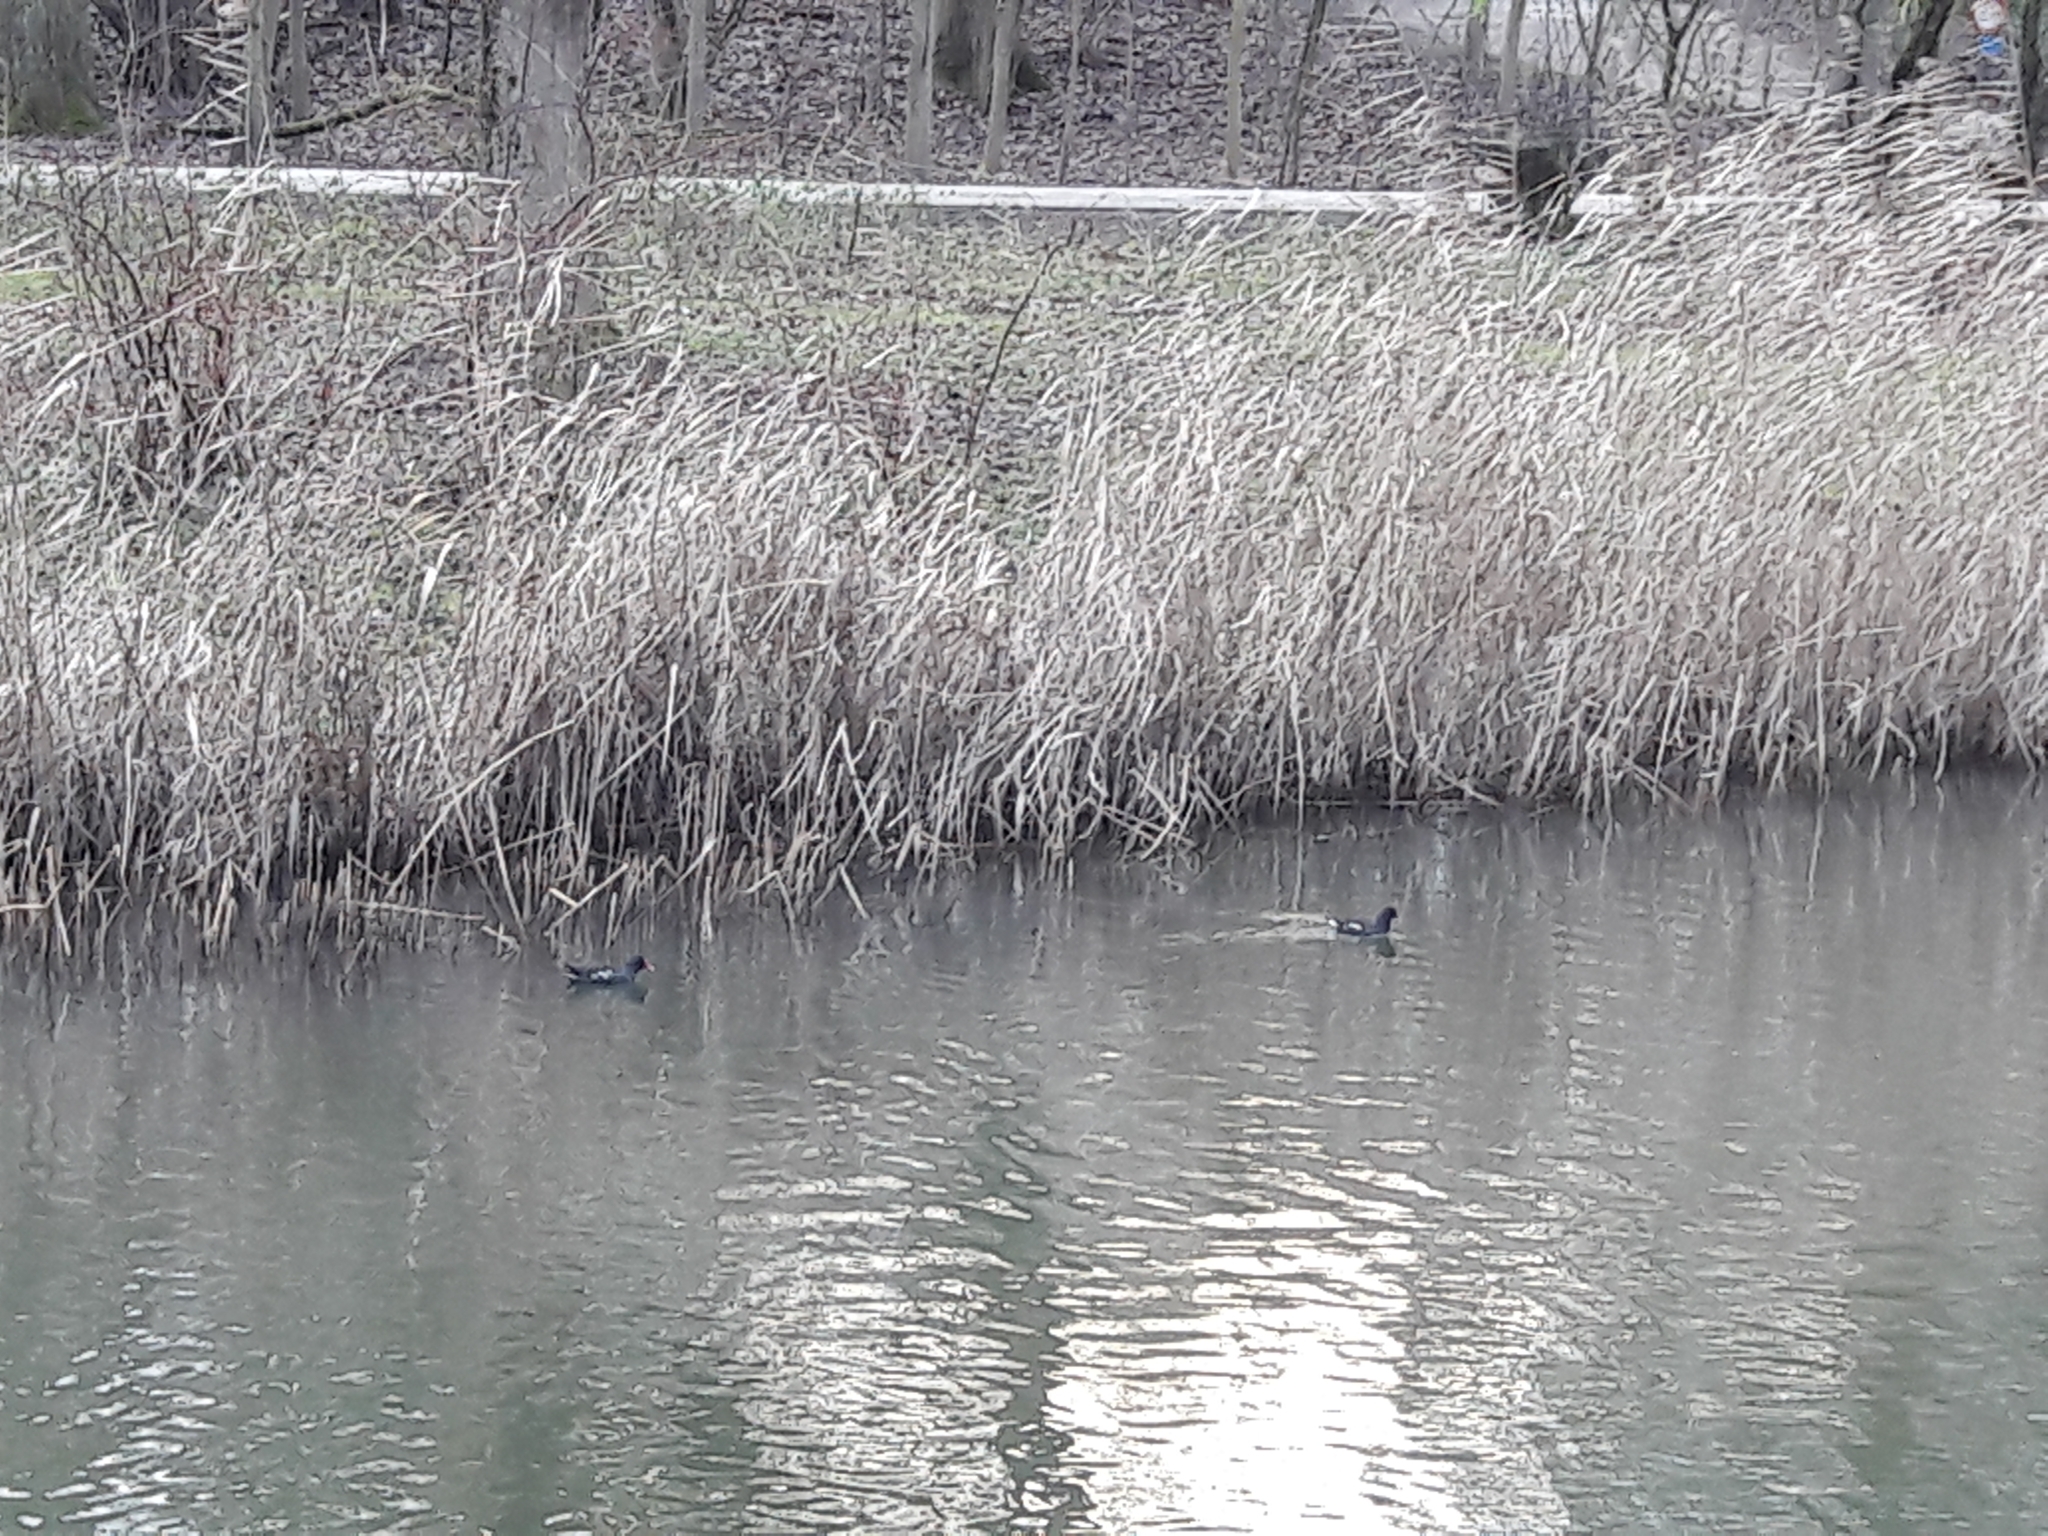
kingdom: Animalia
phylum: Chordata
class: Aves
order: Gruiformes
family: Rallidae
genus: Gallinula
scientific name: Gallinula chloropus
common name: Common moorhen
